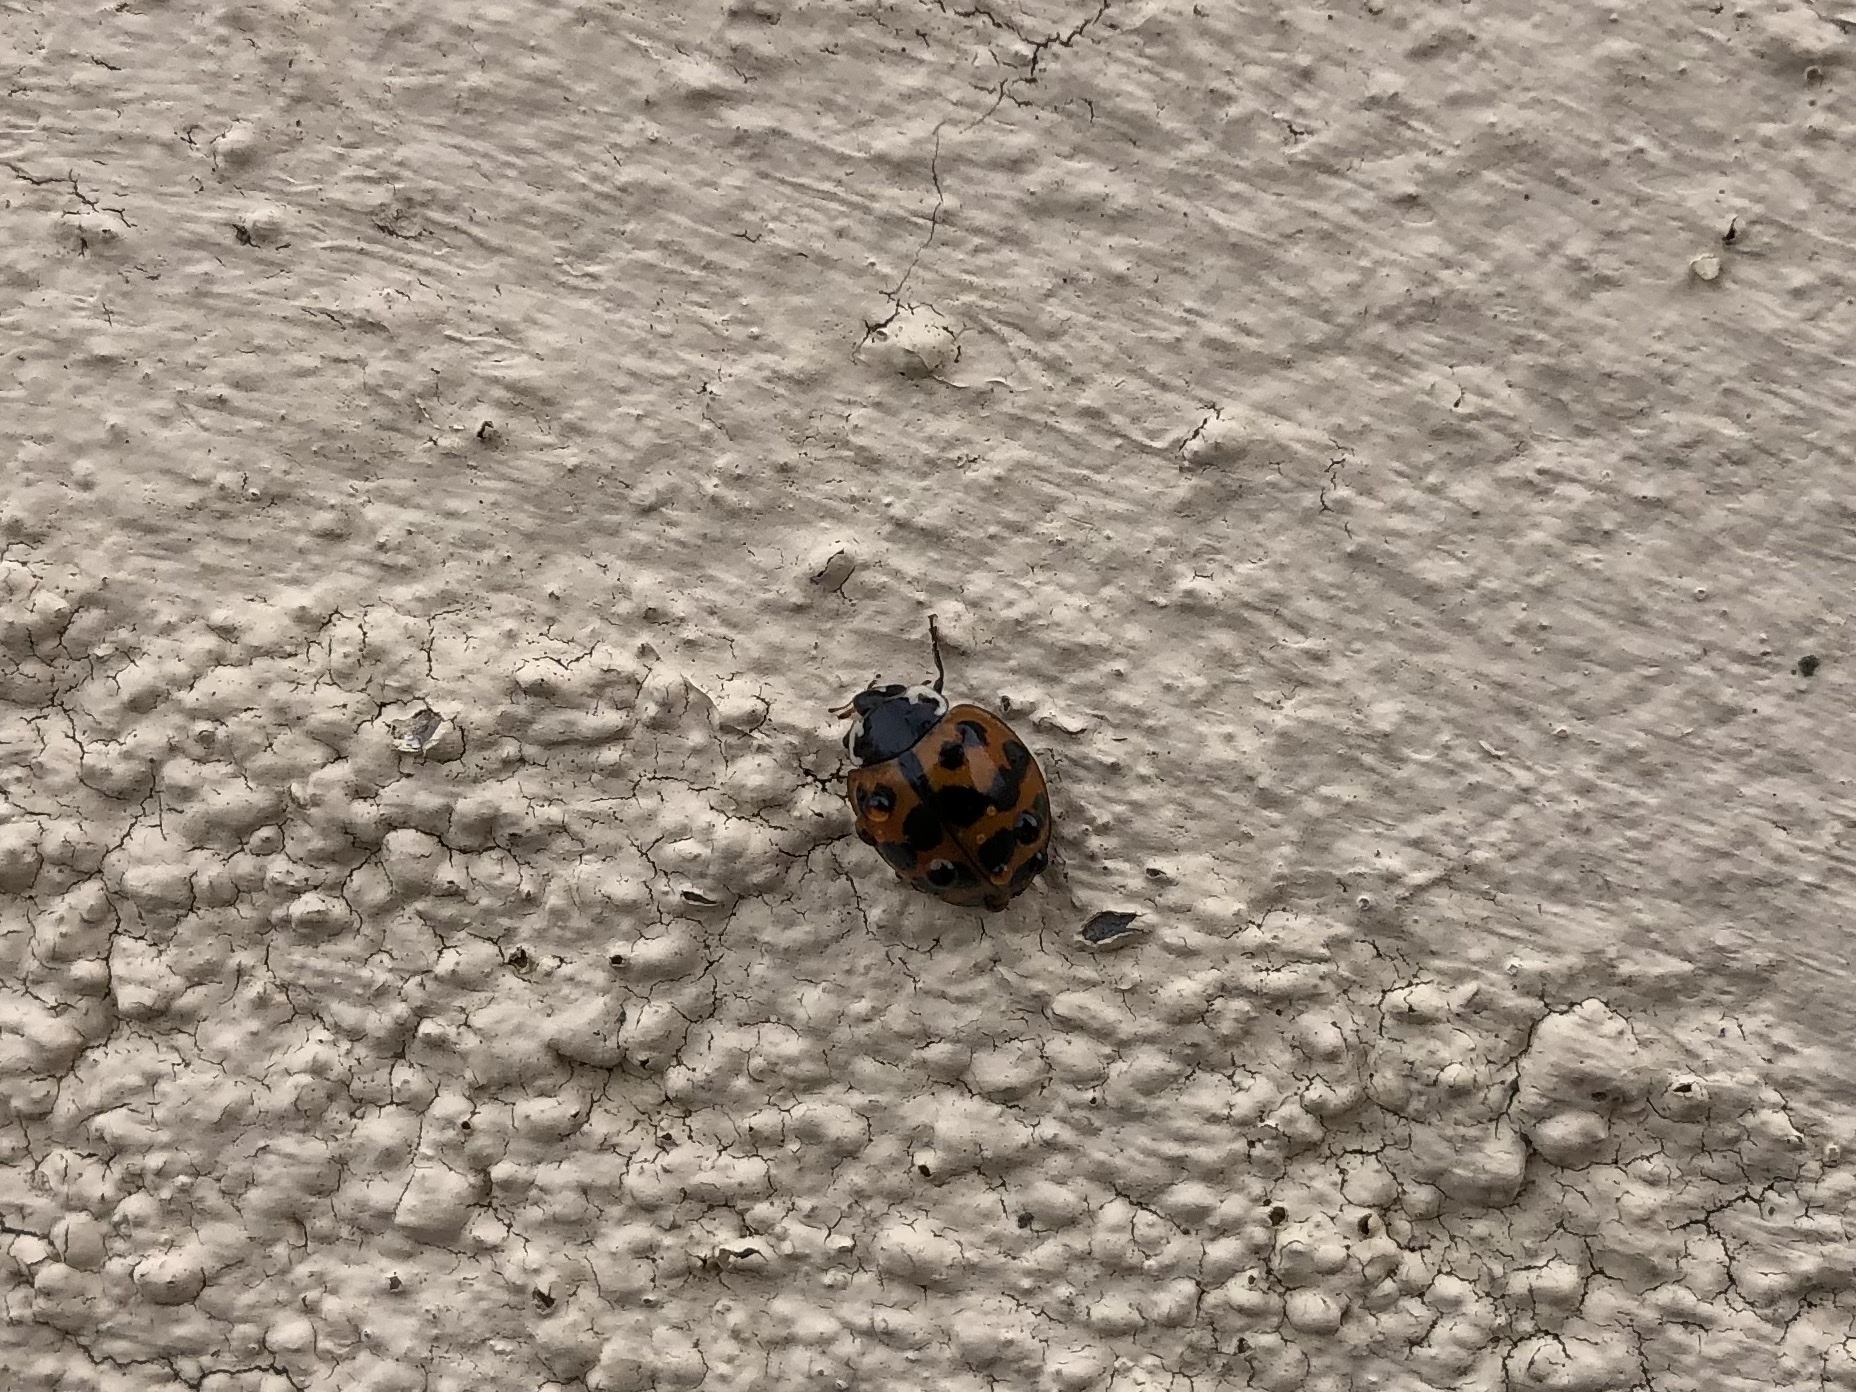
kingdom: Animalia
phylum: Arthropoda
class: Insecta
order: Coleoptera
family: Coccinellidae
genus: Harmonia
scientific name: Harmonia axyridis
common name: Harlequin ladybird
